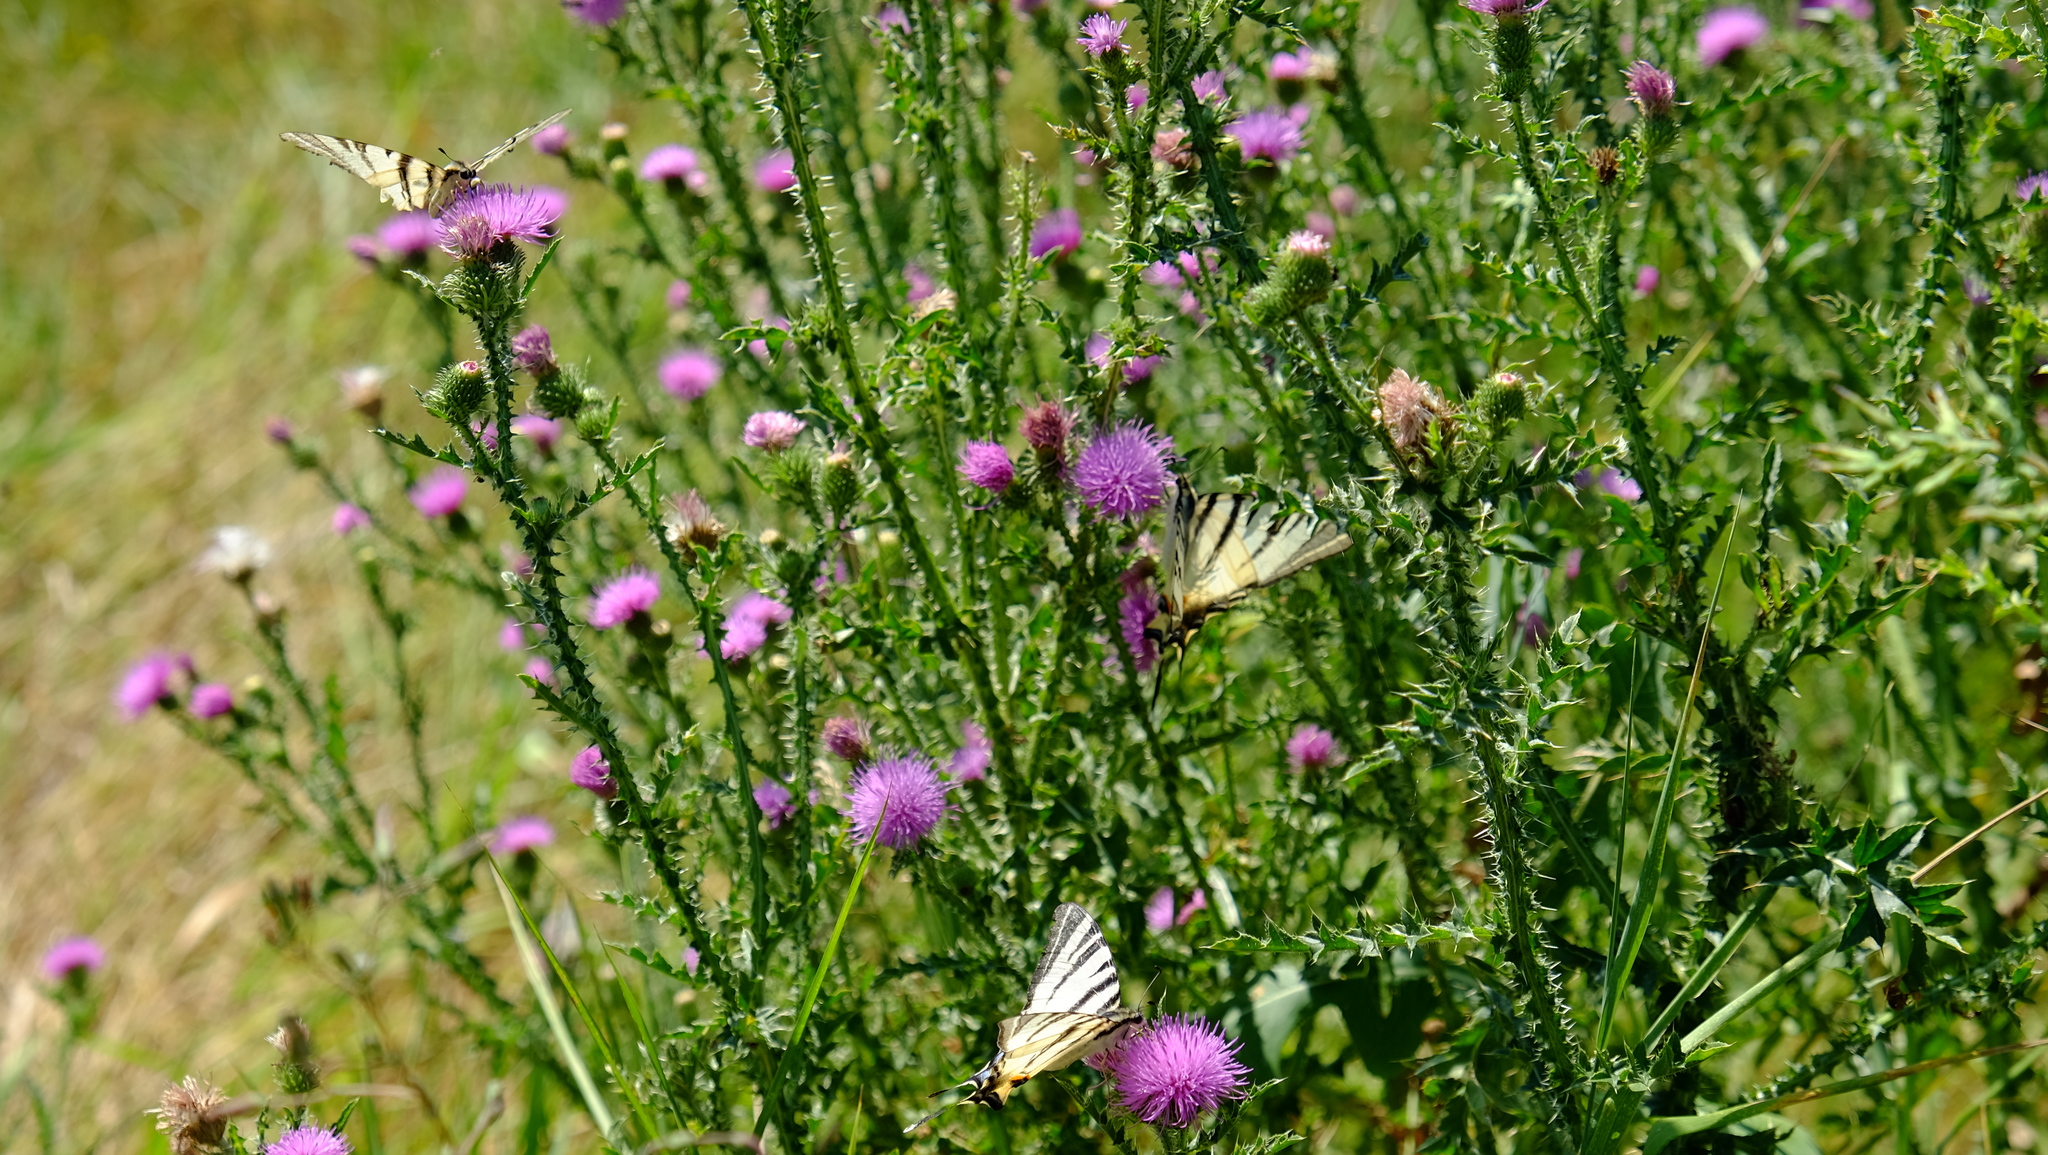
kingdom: Animalia
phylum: Arthropoda
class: Insecta
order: Lepidoptera
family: Papilionidae
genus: Iphiclides
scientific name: Iphiclides podalirius
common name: Scarce swallowtail
